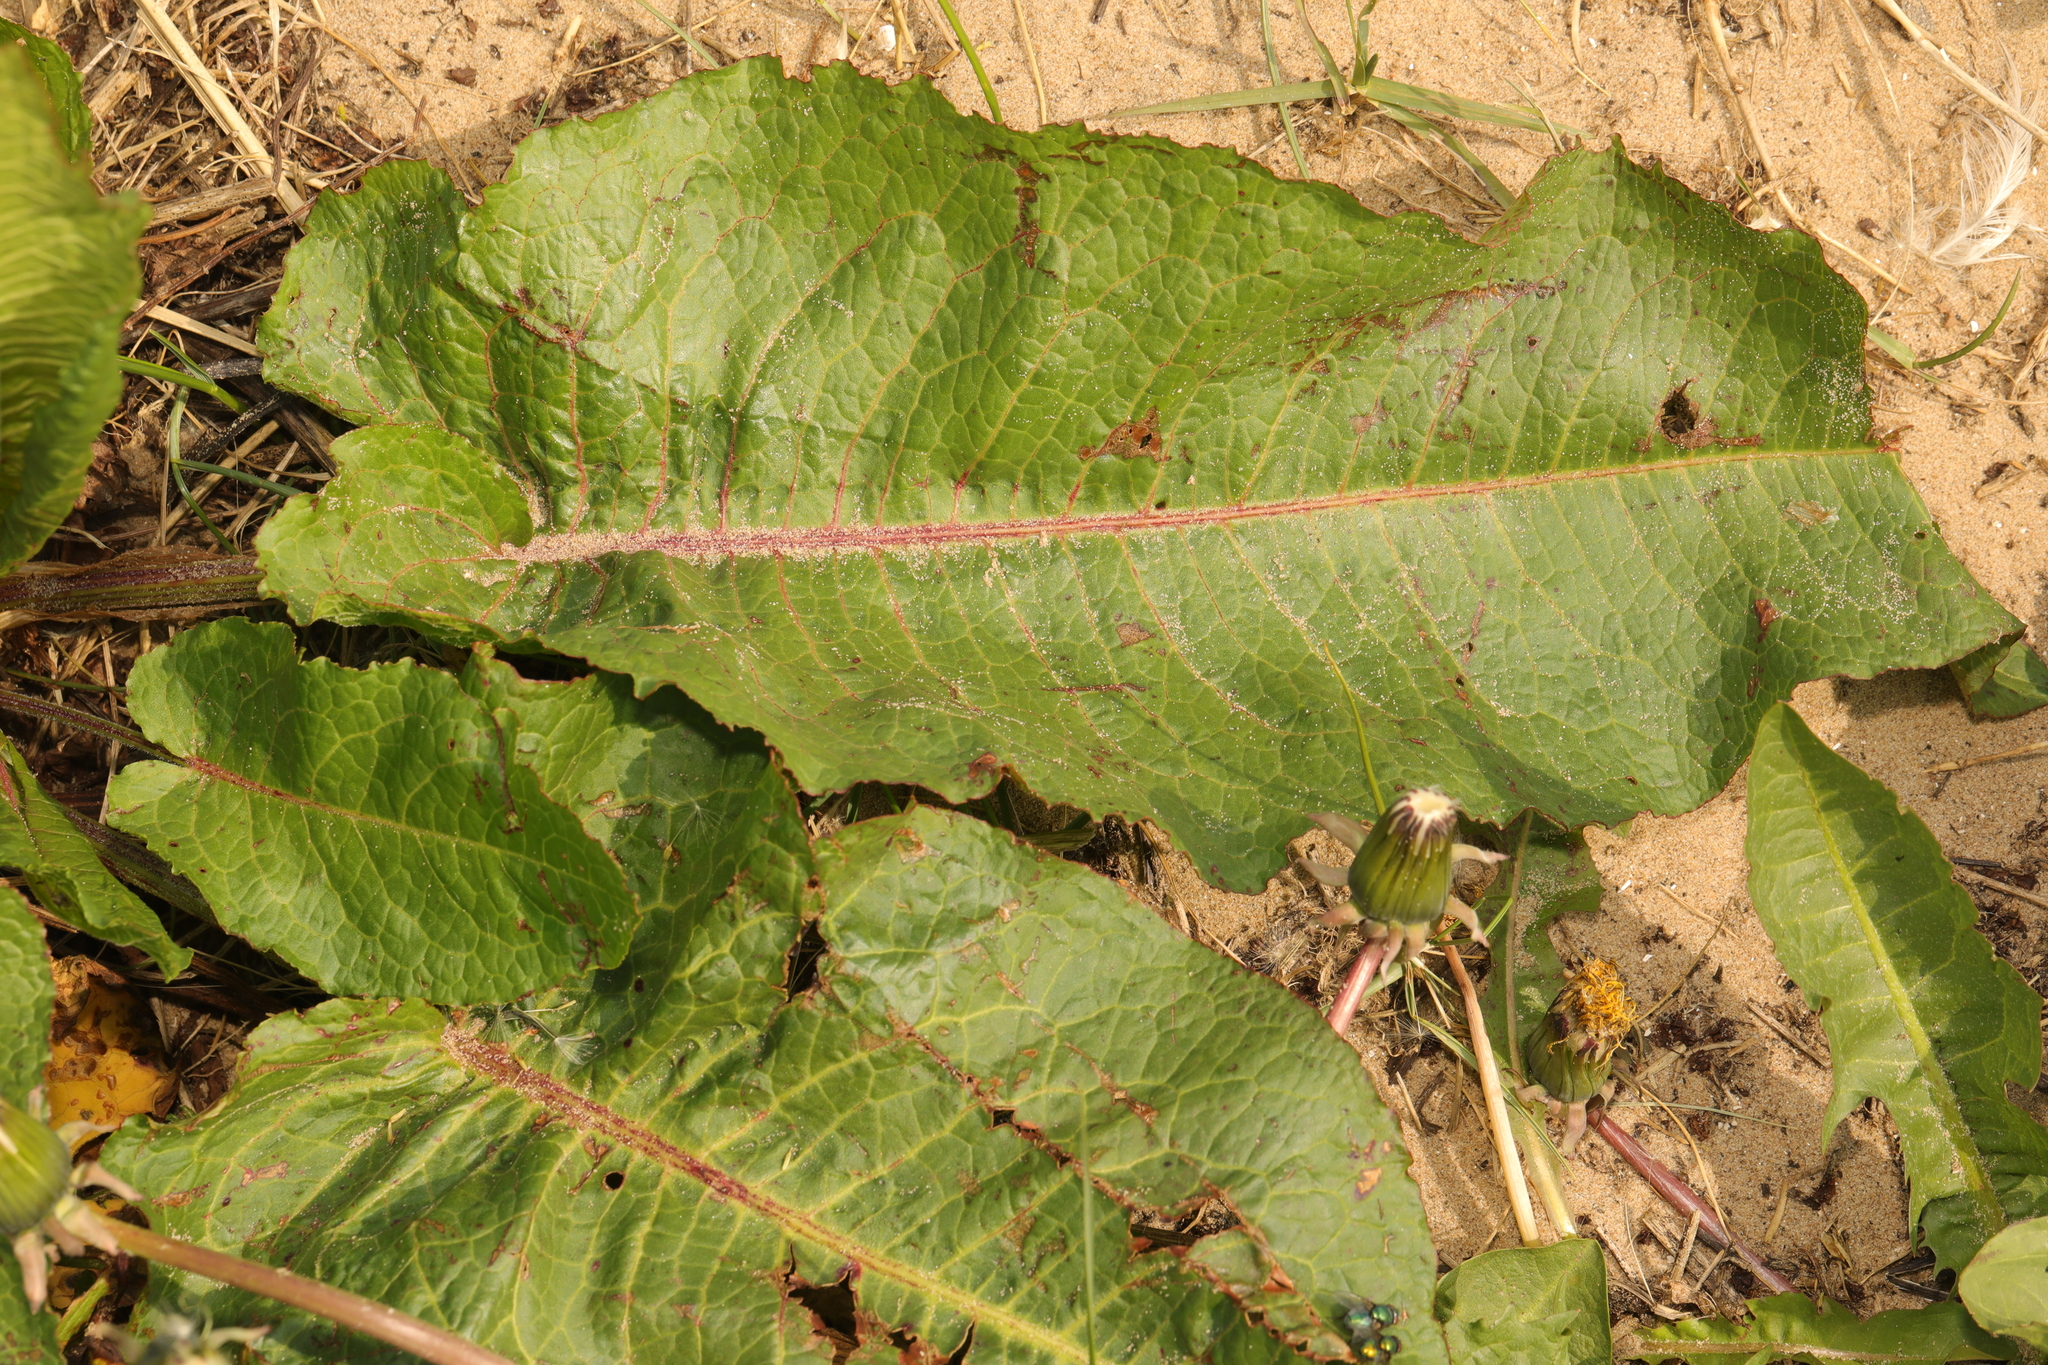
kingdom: Plantae
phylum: Tracheophyta
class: Magnoliopsida
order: Caryophyllales
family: Polygonaceae
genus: Rumex
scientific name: Rumex obtusifolius
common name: Bitter dock
